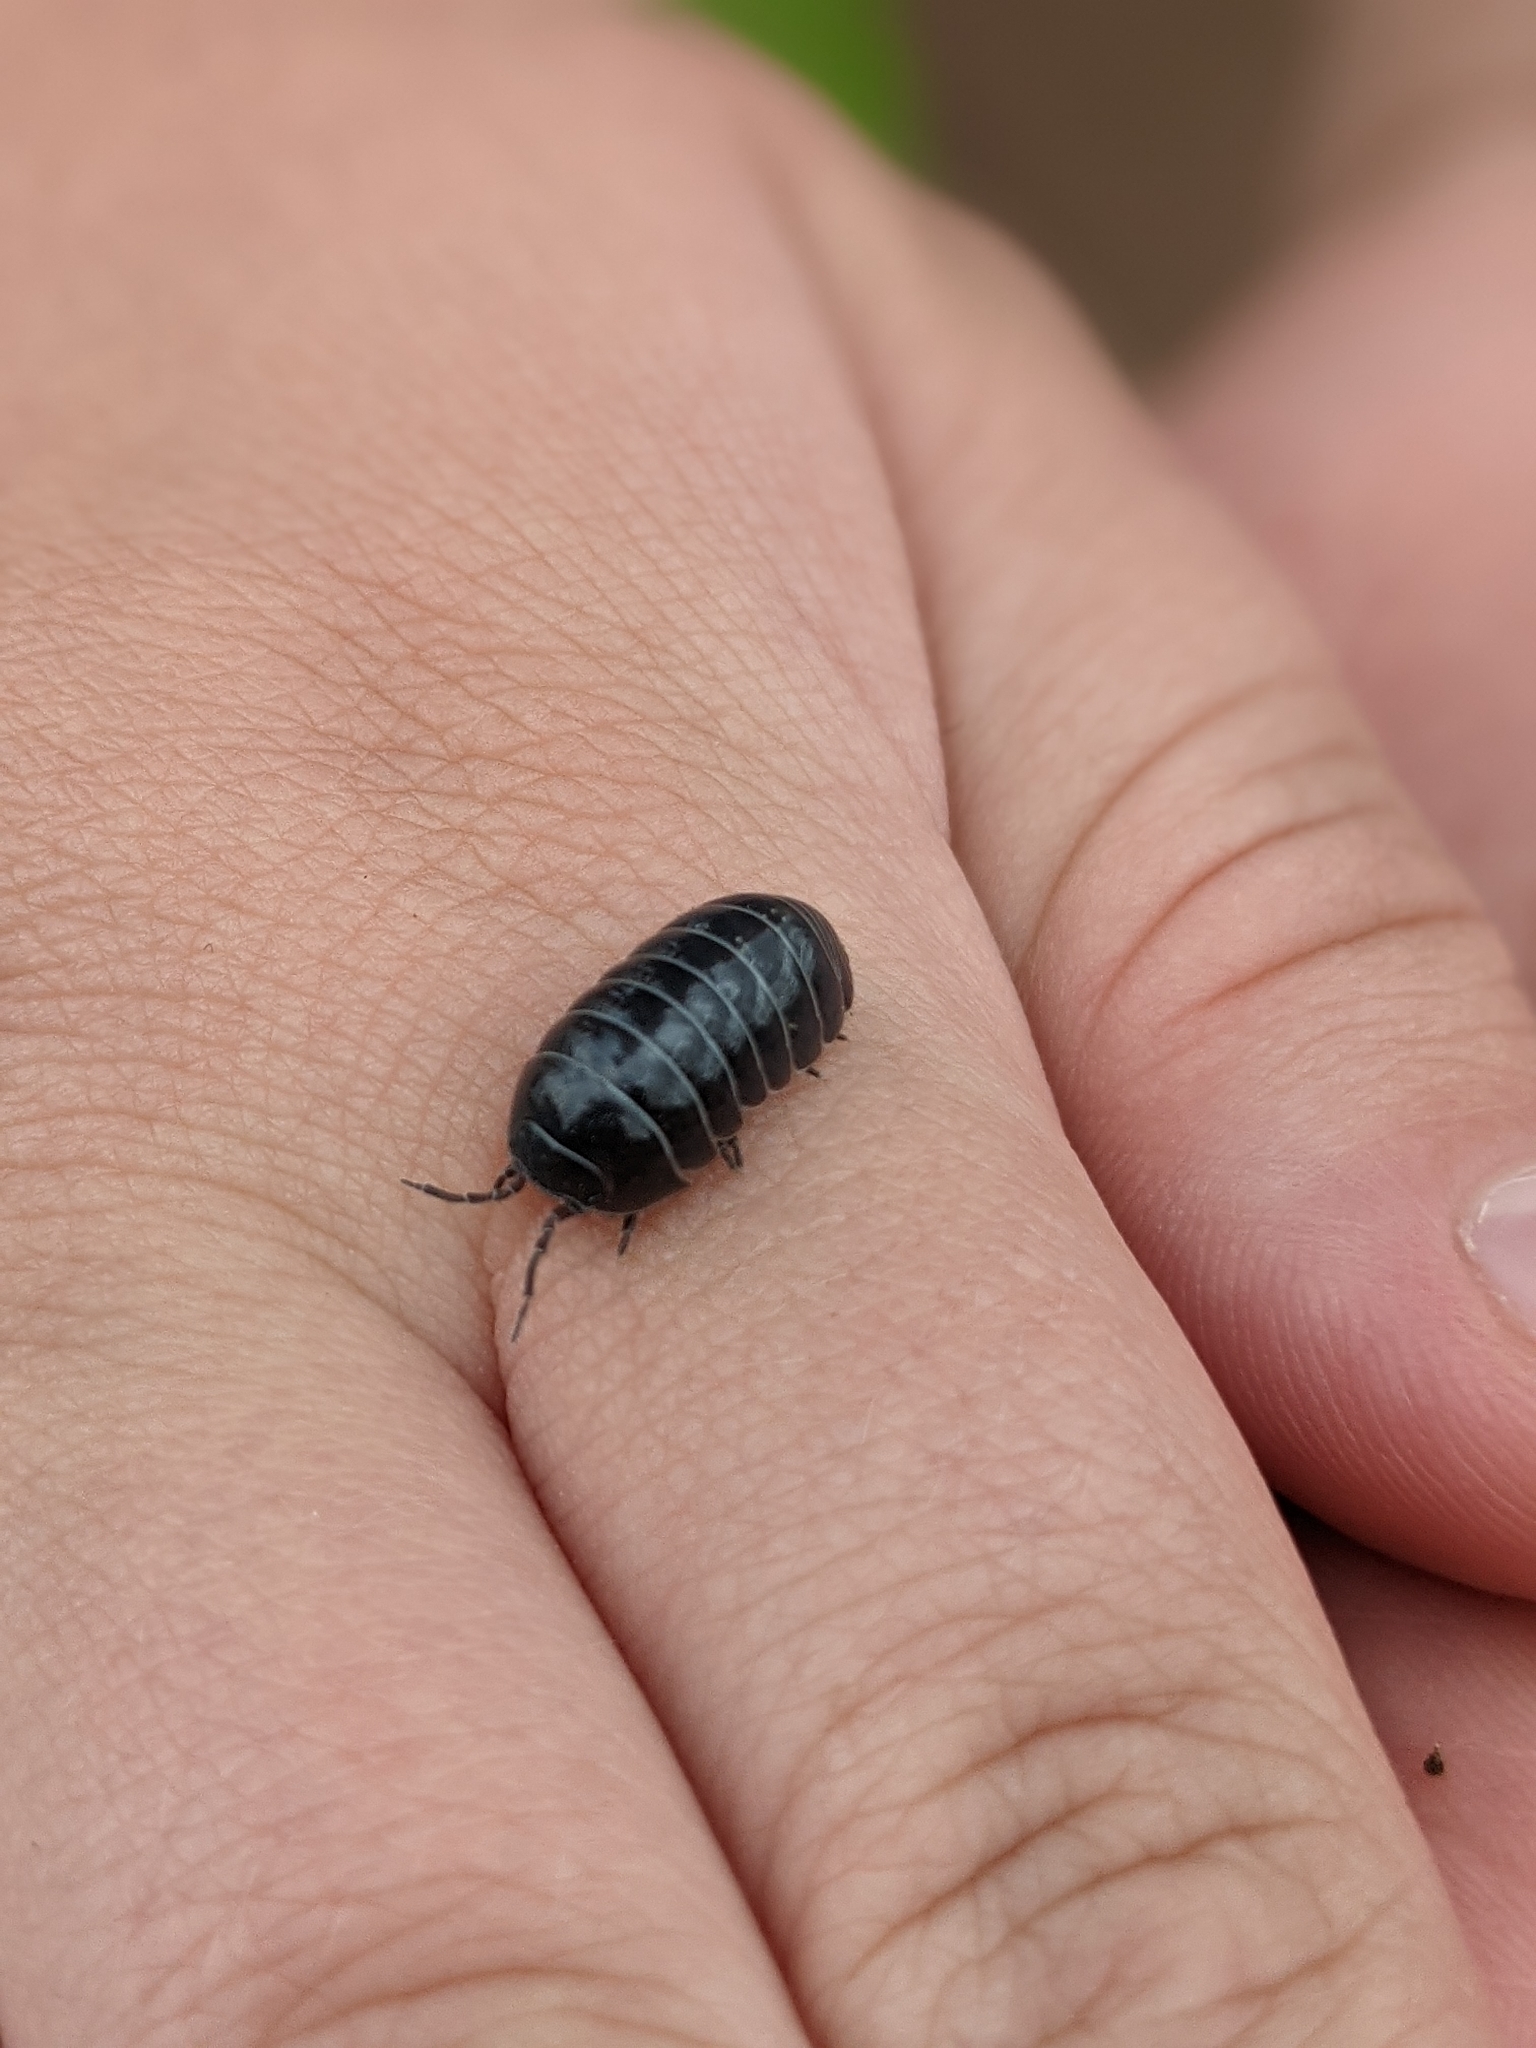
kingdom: Animalia
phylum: Arthropoda
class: Malacostraca
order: Isopoda
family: Armadillidiidae
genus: Armadillidium
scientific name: Armadillidium vulgare
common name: Common pill woodlouse
